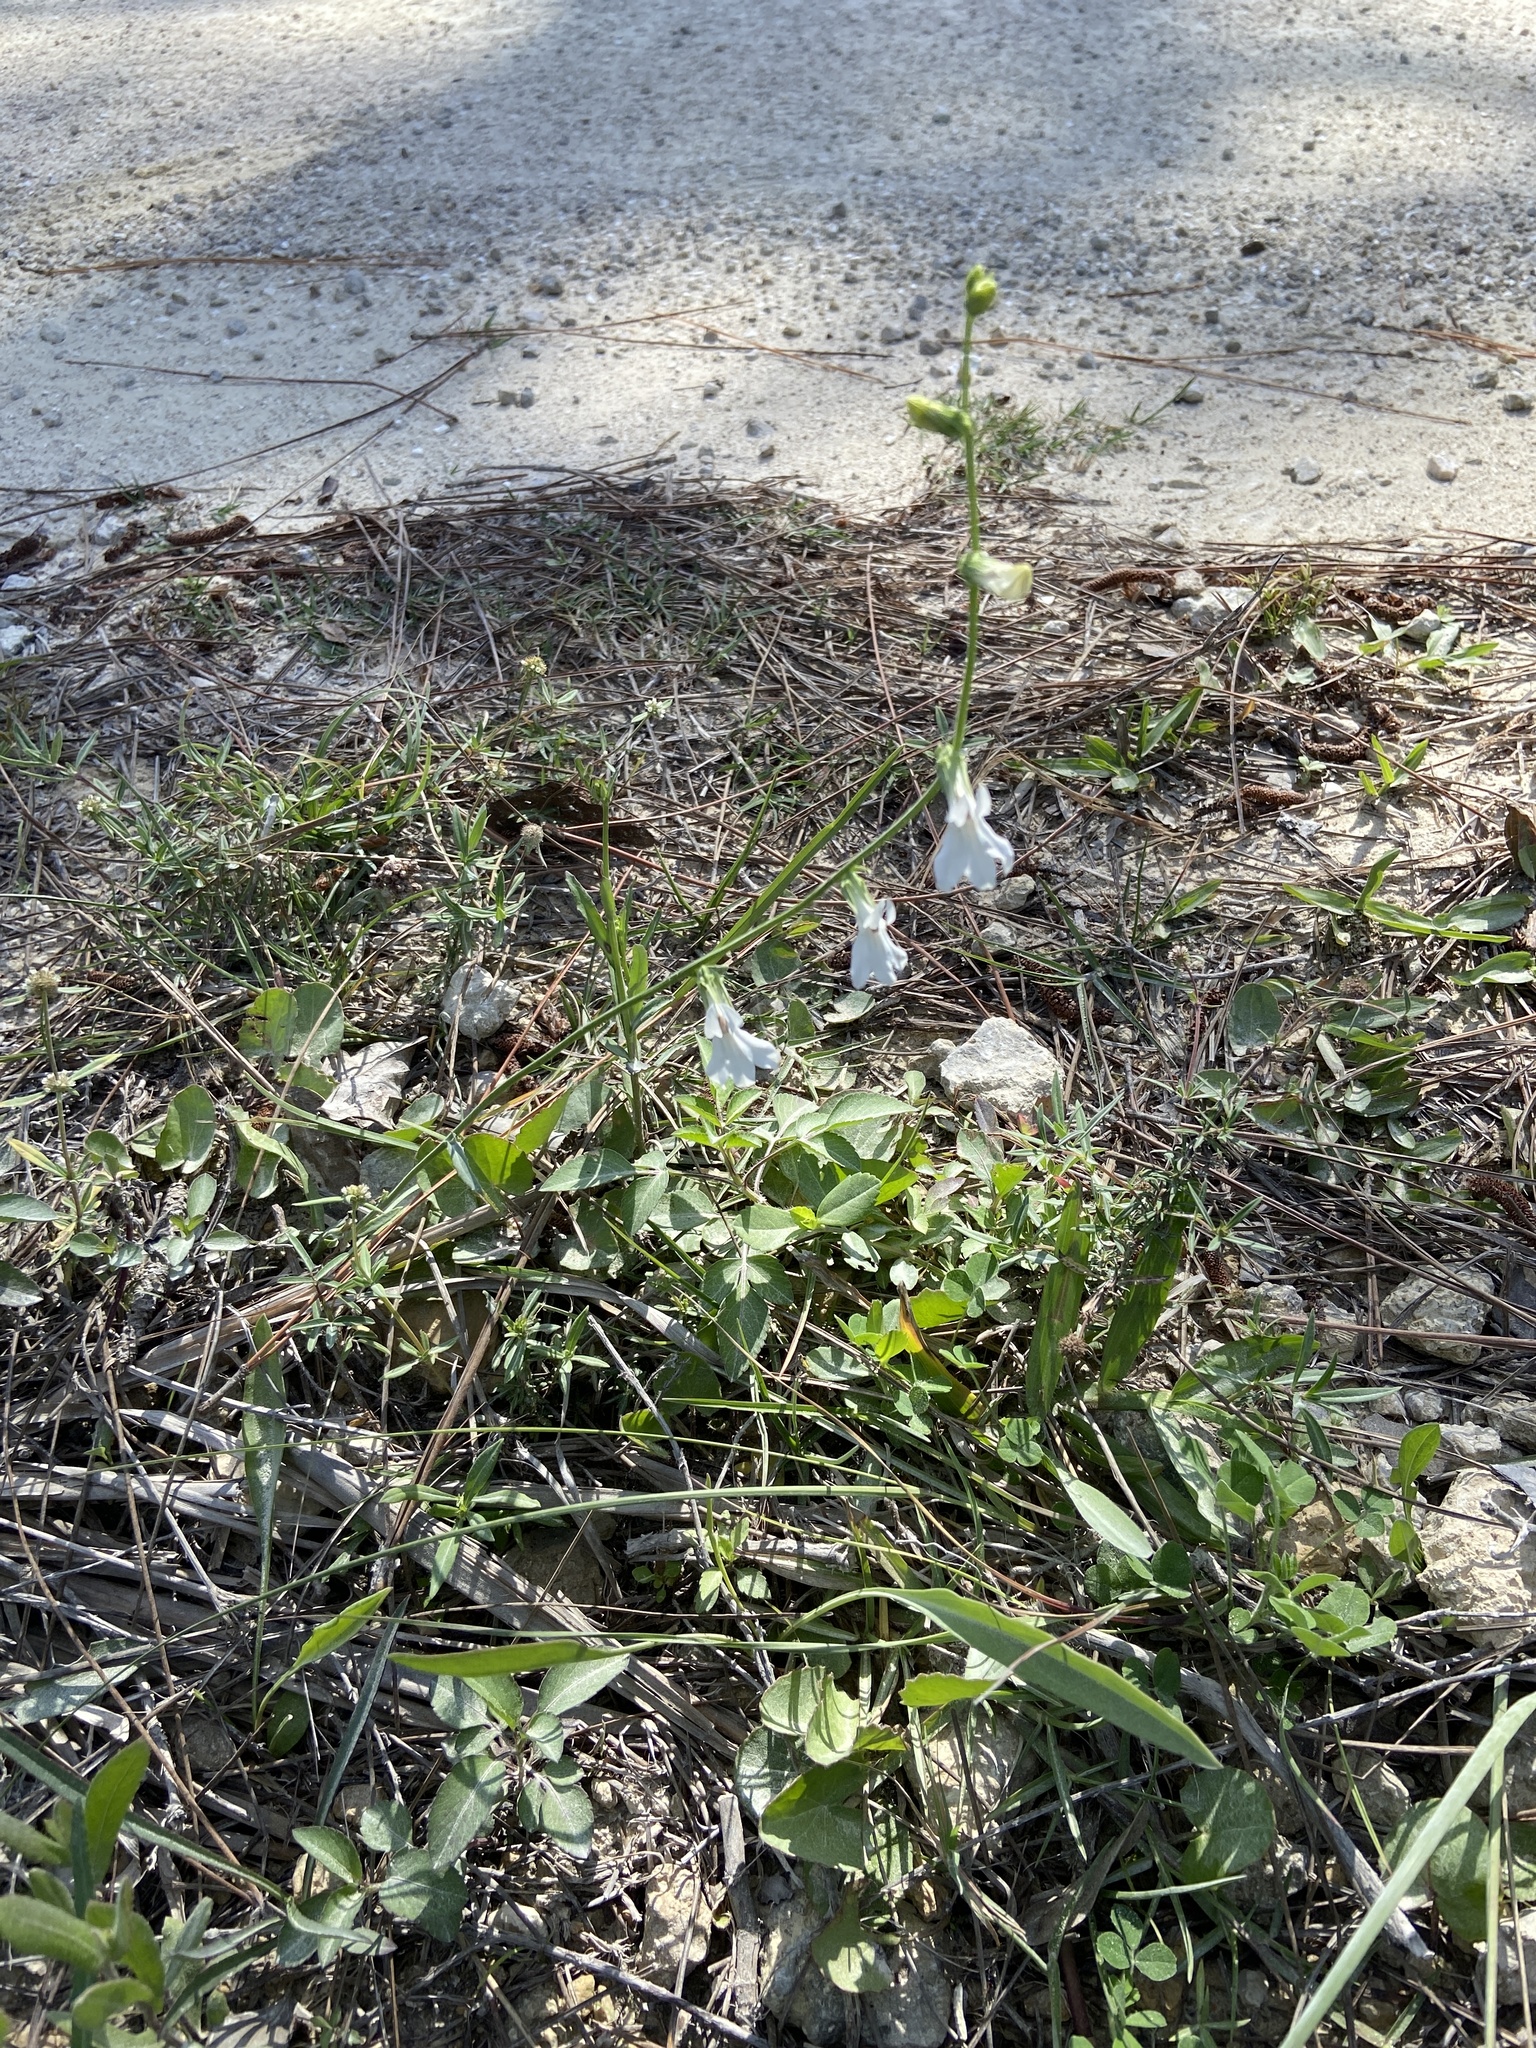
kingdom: Plantae
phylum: Tracheophyta
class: Magnoliopsida
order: Asterales
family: Campanulaceae
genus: Lobelia
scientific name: Lobelia glandulosa
